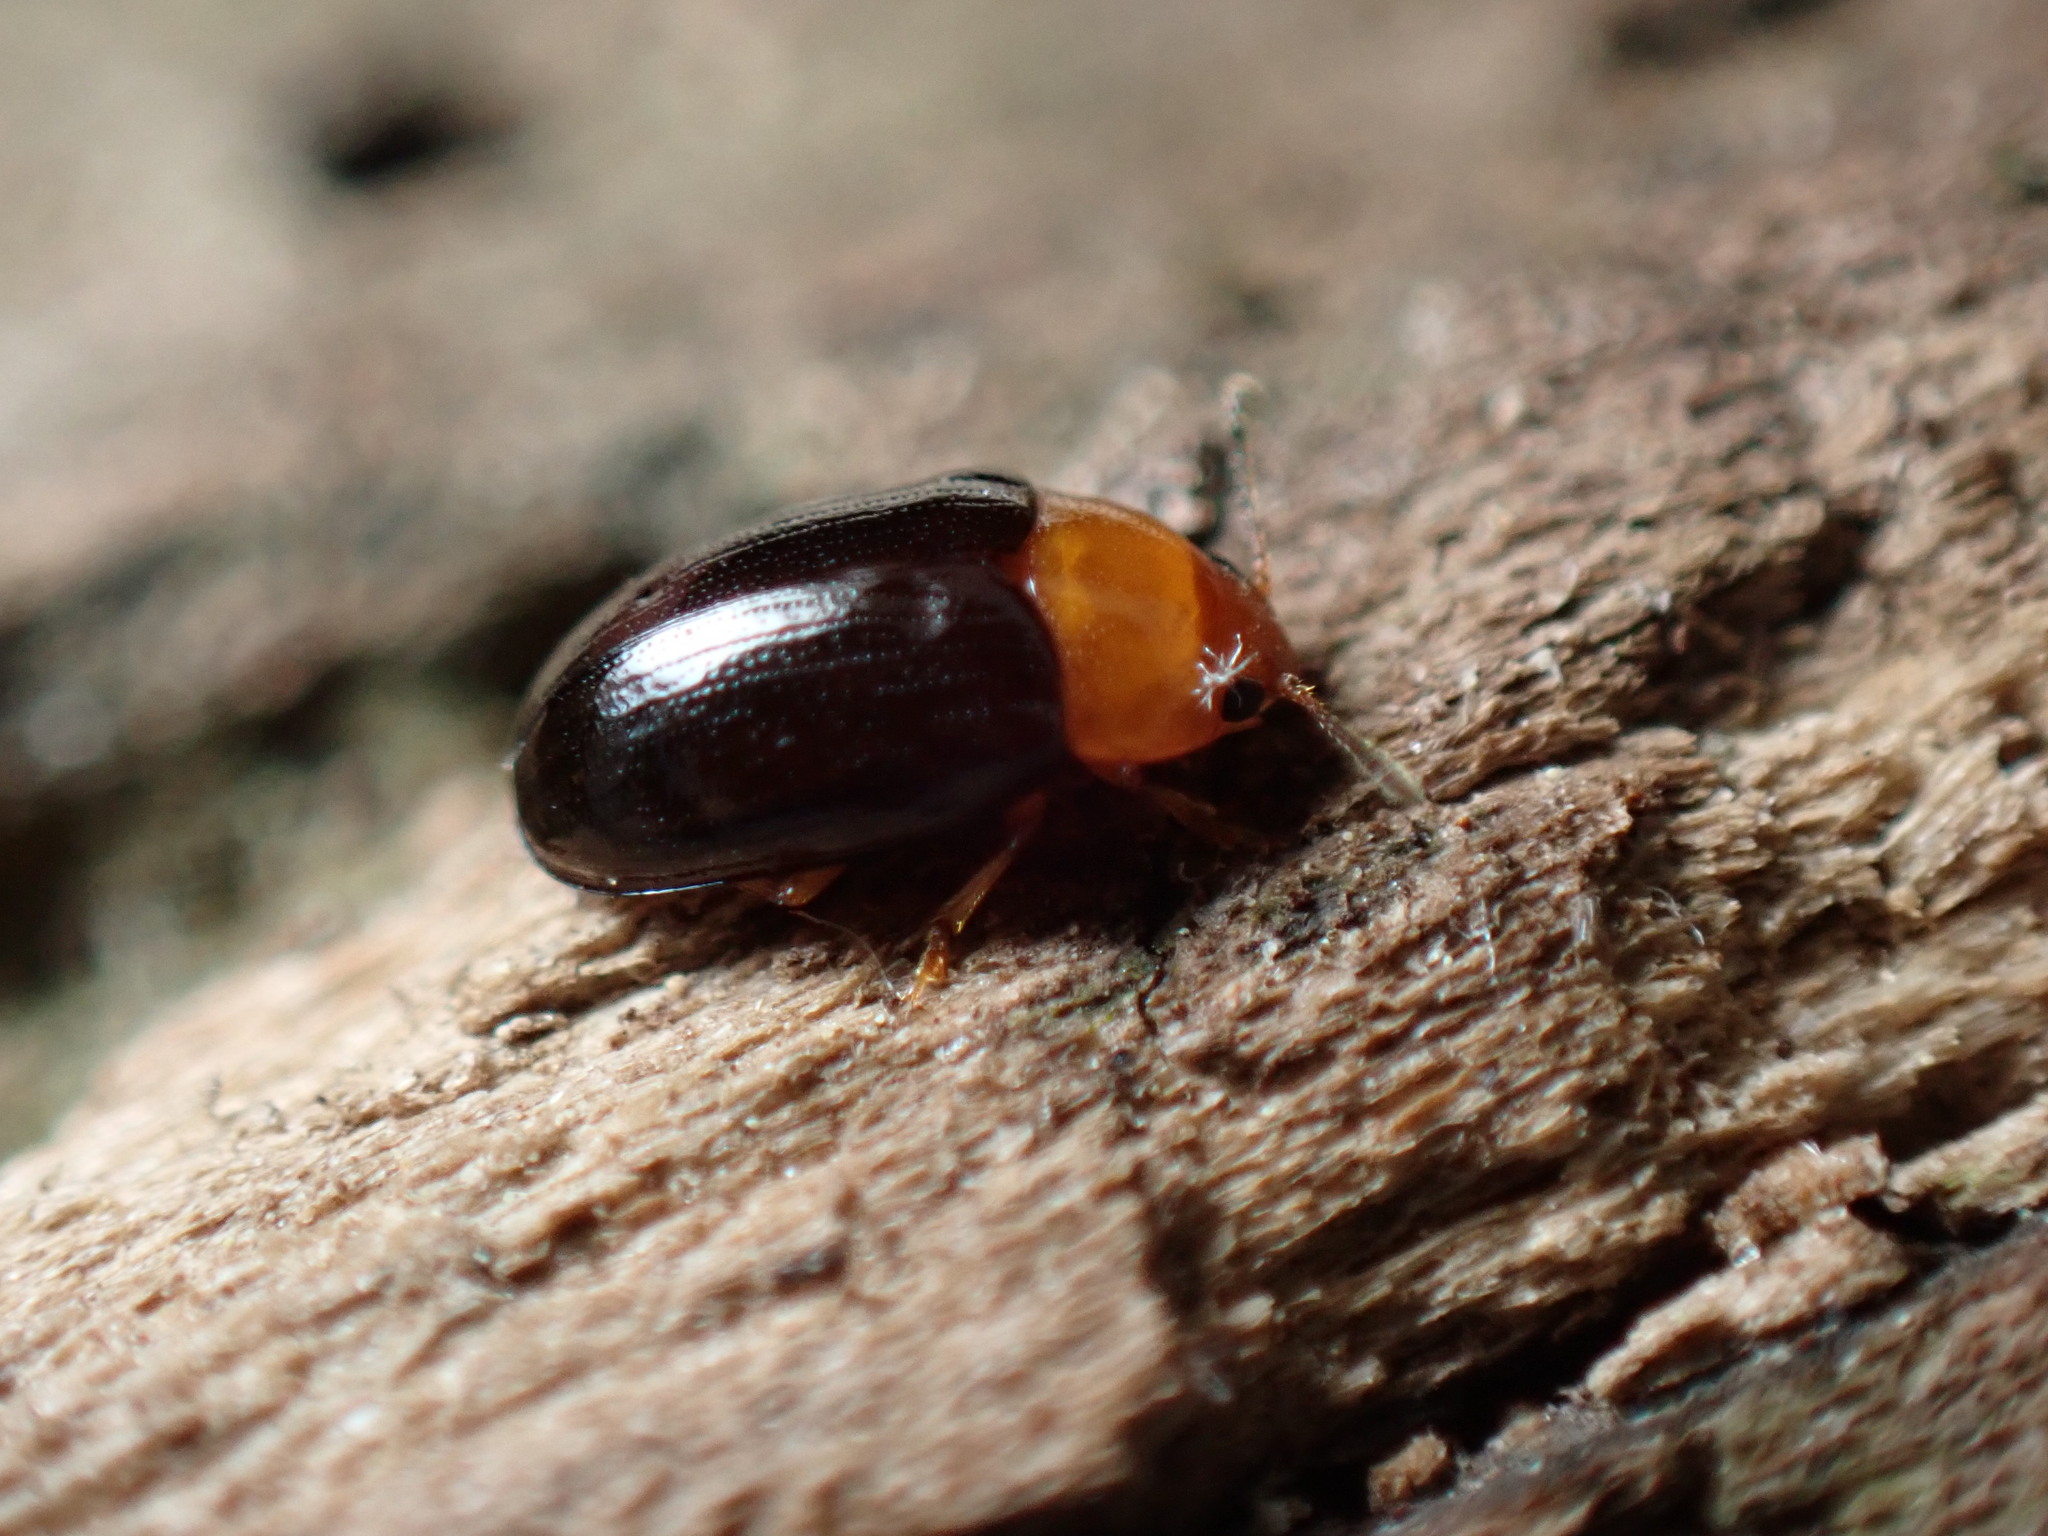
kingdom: Animalia
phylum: Arthropoda
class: Insecta
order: Coleoptera
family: Erotylidae
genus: Triplax
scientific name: Triplax thoracica
